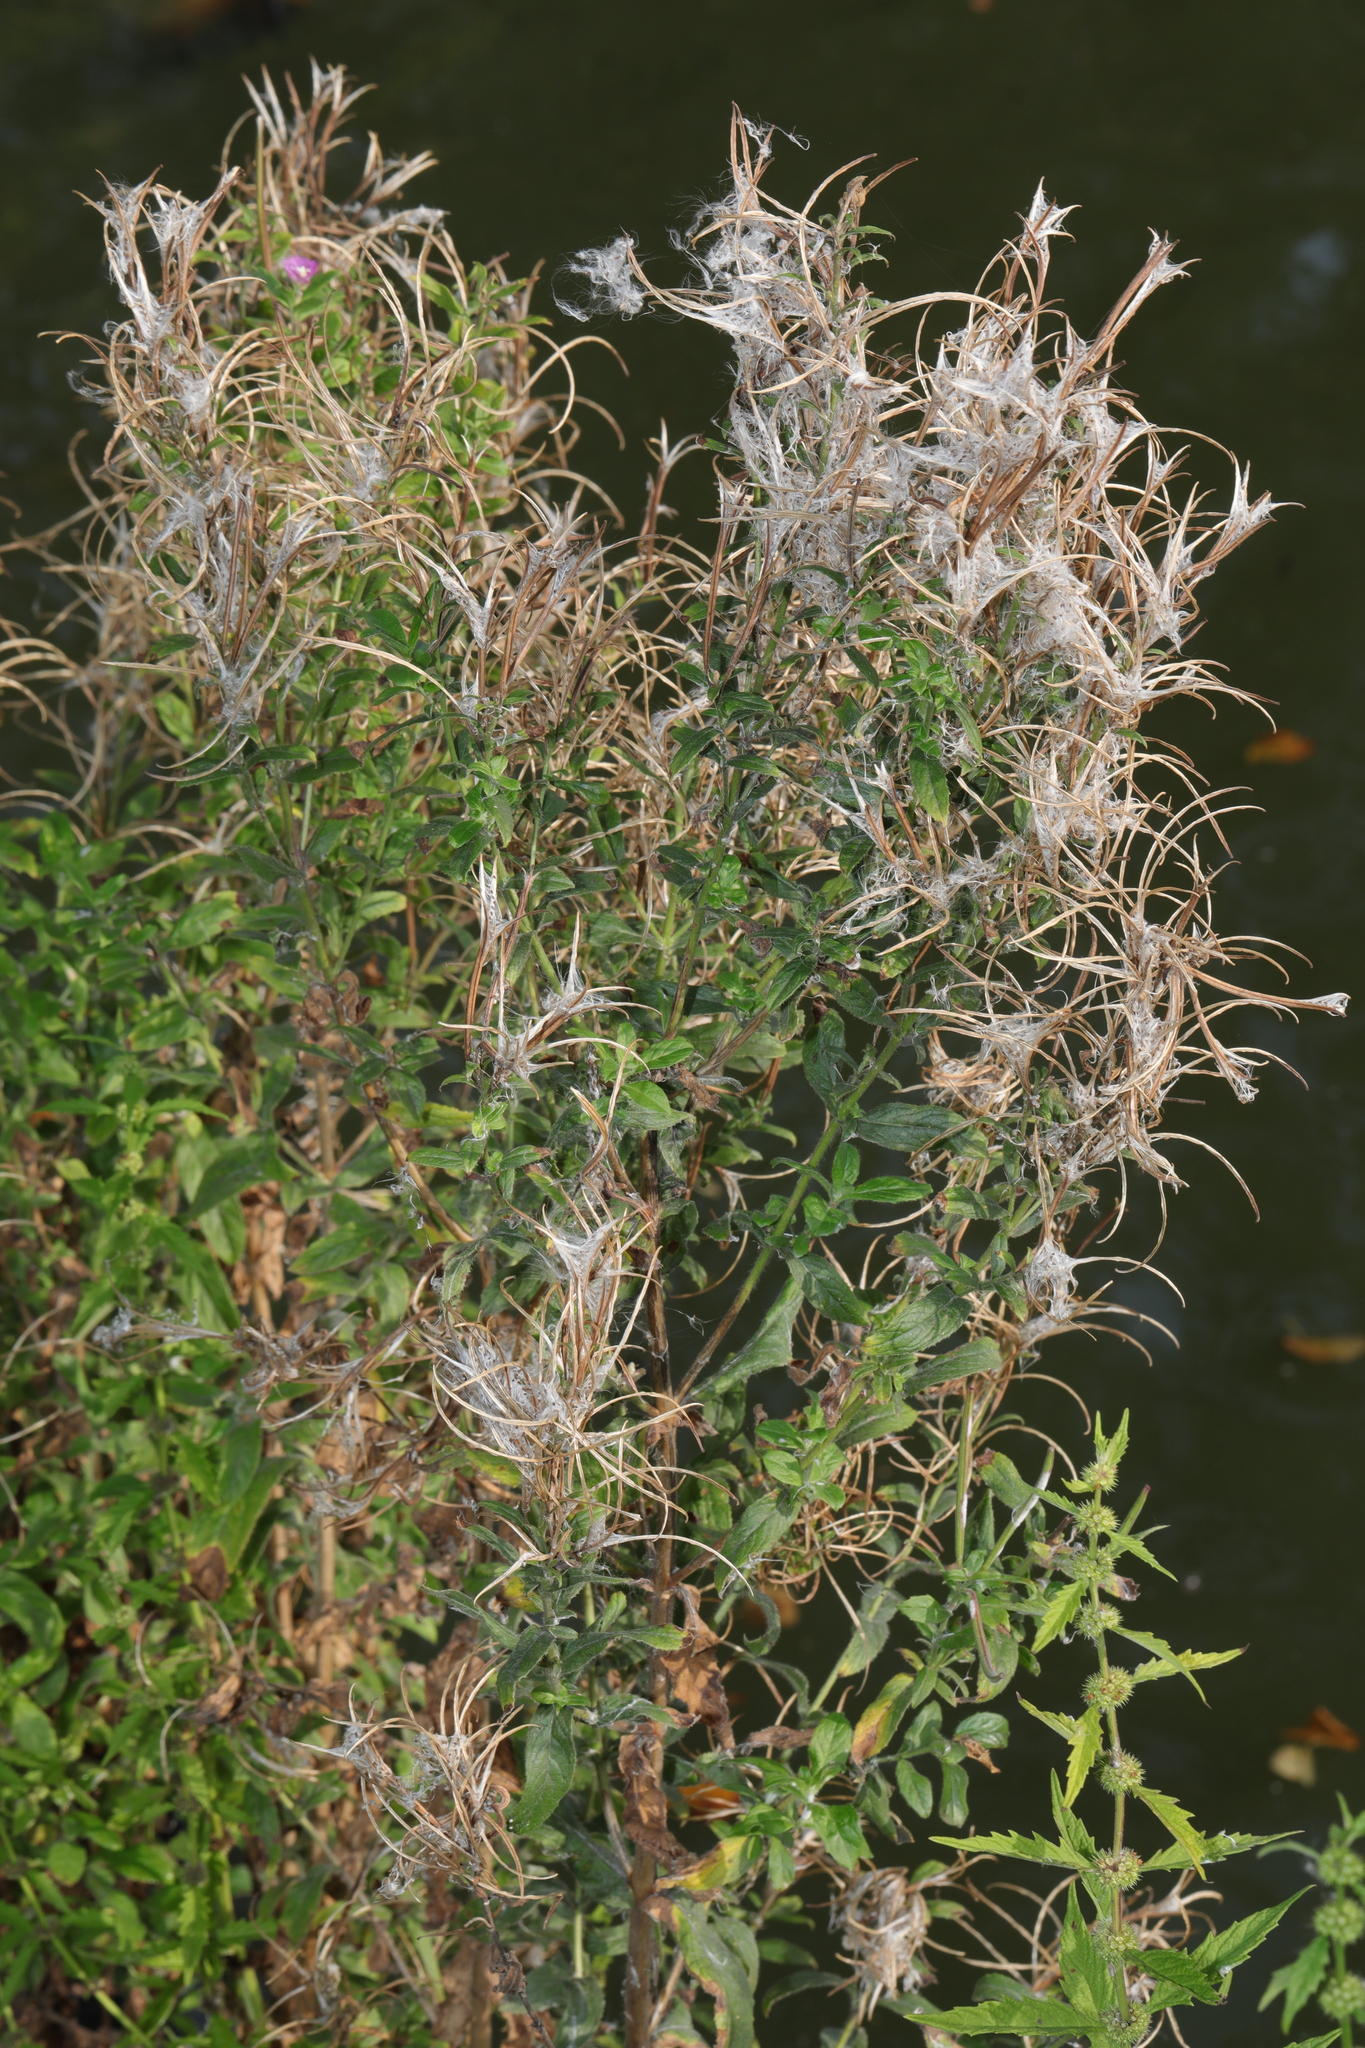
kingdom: Plantae
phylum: Tracheophyta
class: Magnoliopsida
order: Myrtales
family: Onagraceae
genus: Epilobium
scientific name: Epilobium hirsutum
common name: Great willowherb
